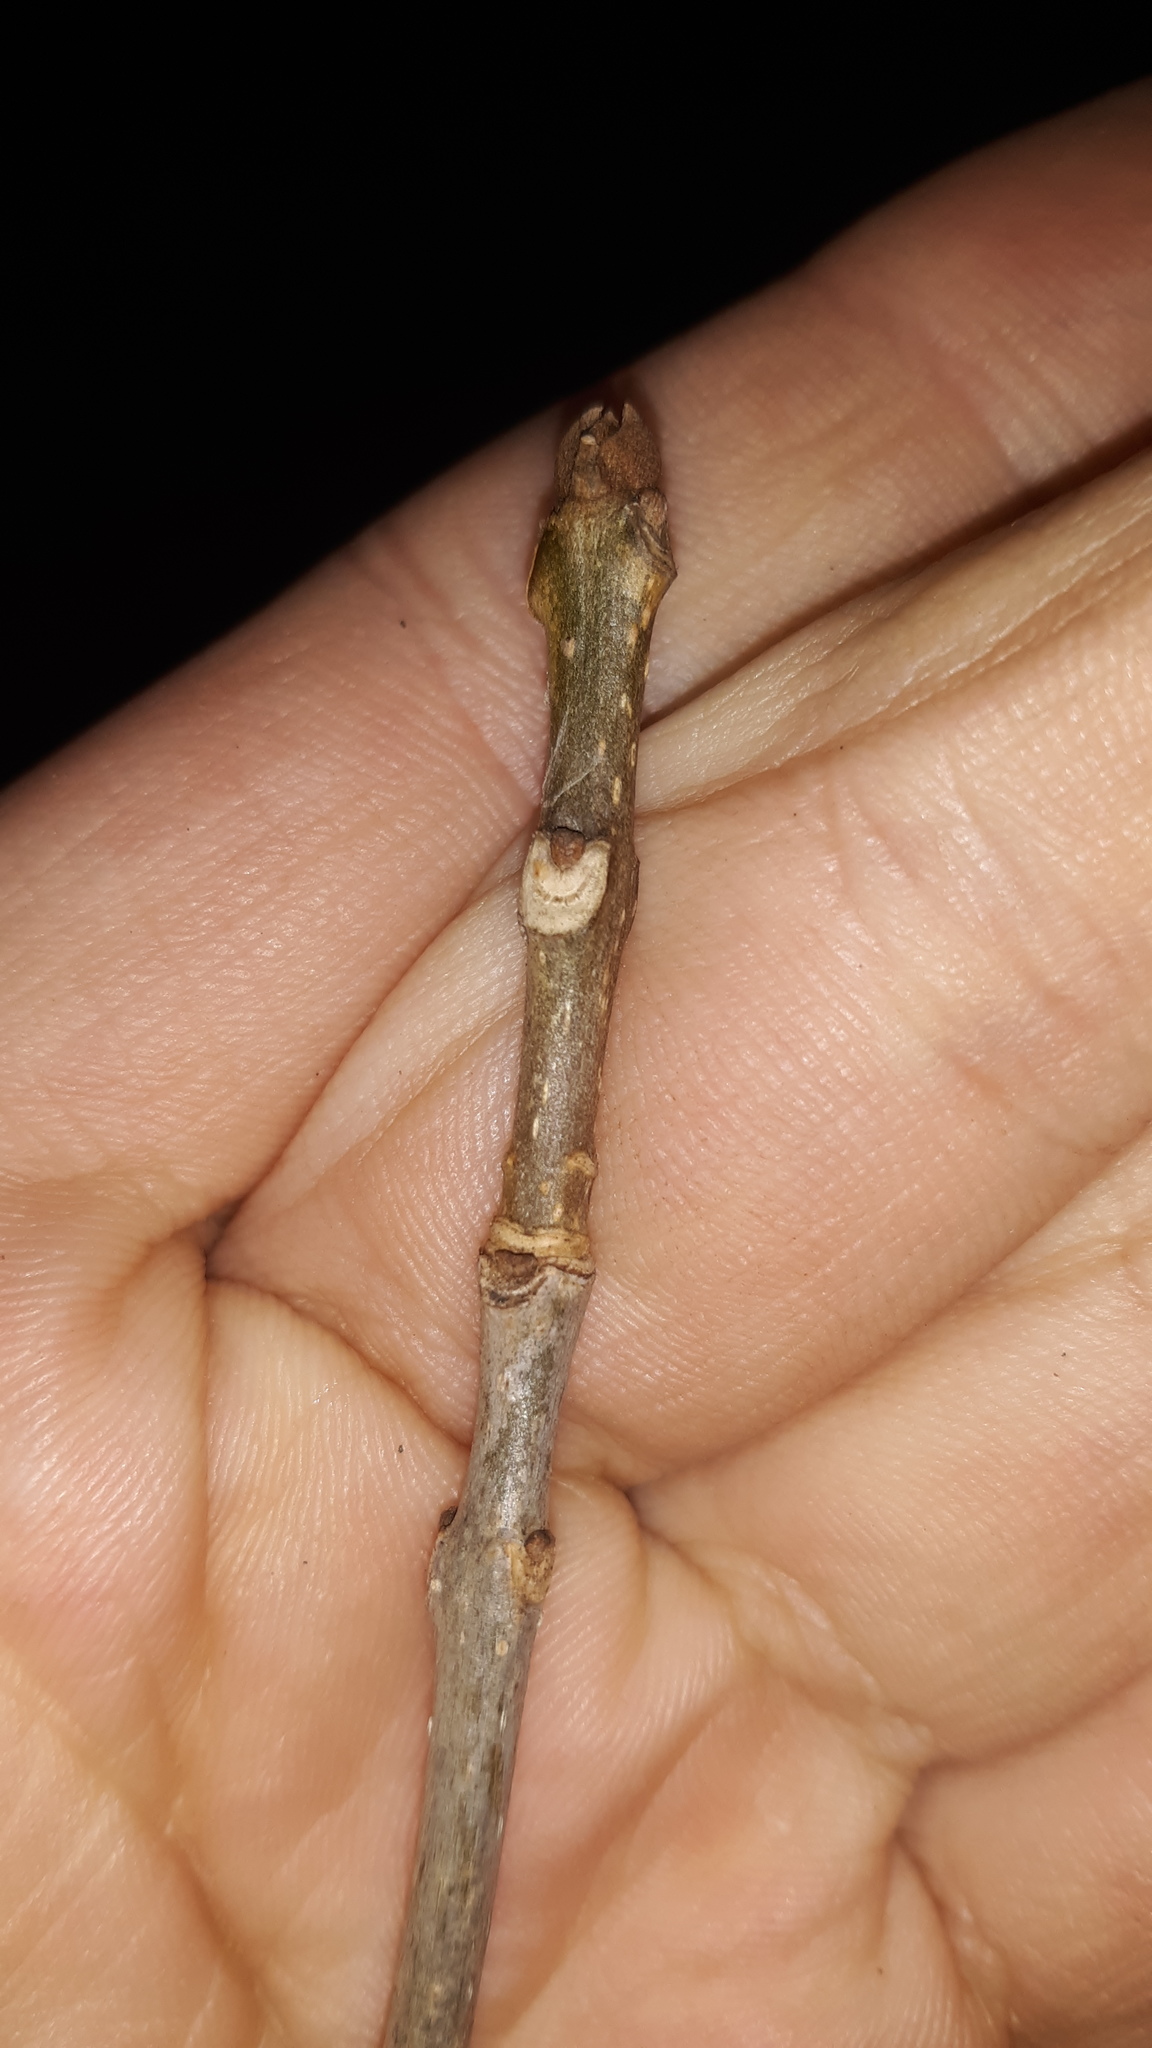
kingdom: Plantae
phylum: Tracheophyta
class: Magnoliopsida
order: Lamiales
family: Oleaceae
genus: Fraxinus
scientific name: Fraxinus americana
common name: White ash
